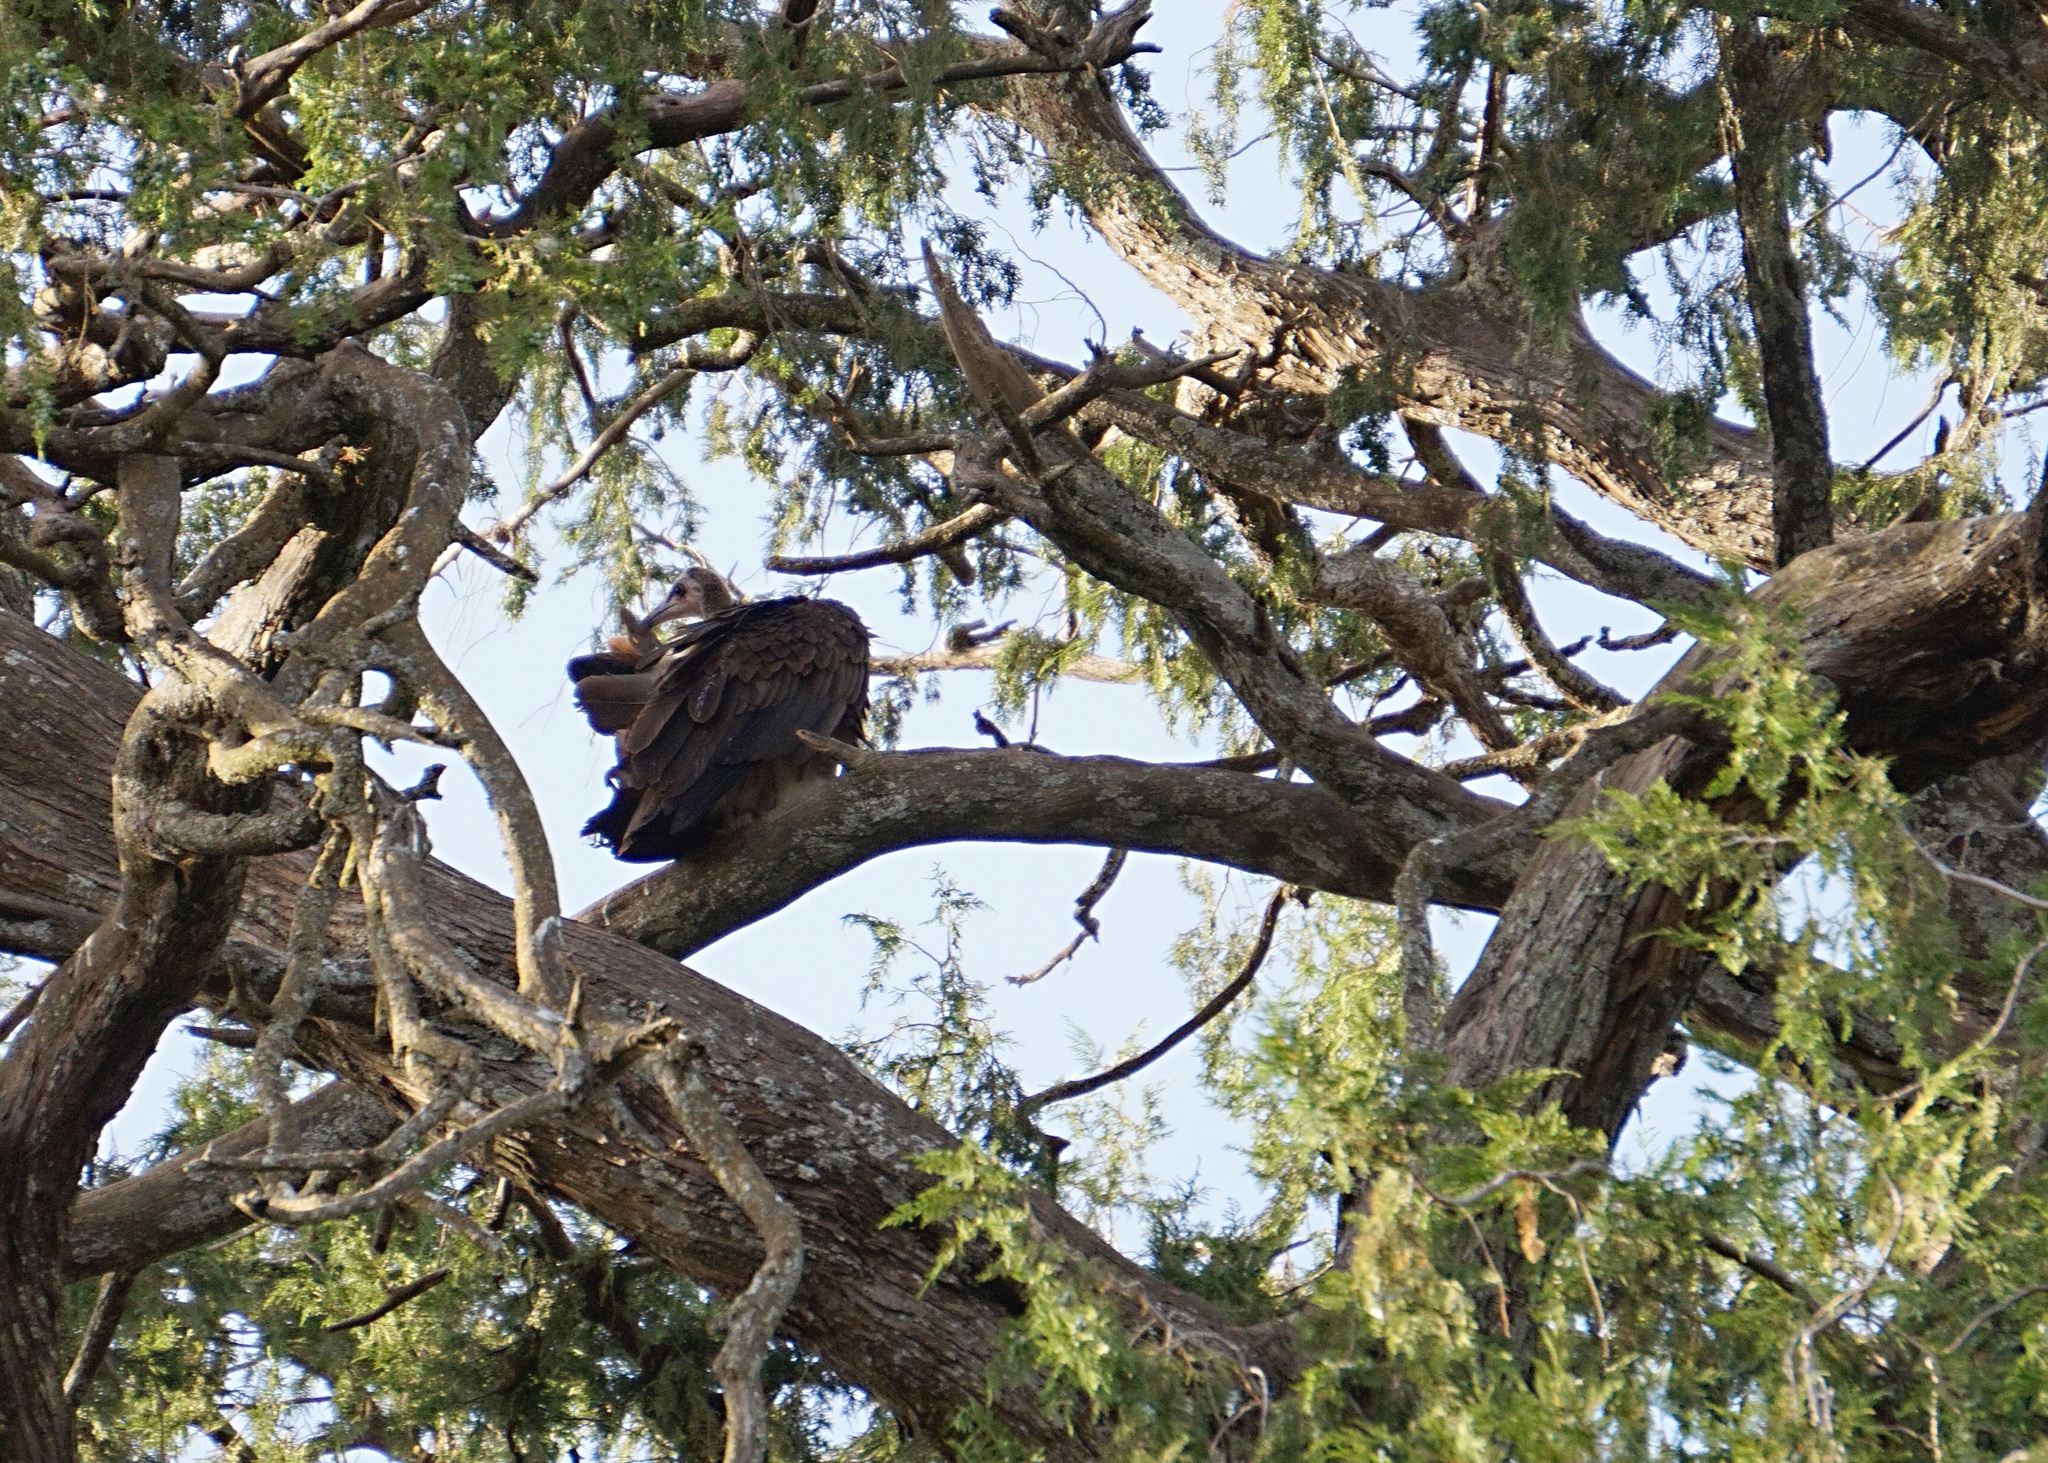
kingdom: Animalia
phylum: Chordata
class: Aves
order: Accipitriformes
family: Accipitridae
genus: Necrosyrtes
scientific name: Necrosyrtes monachus
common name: Hooded vulture
